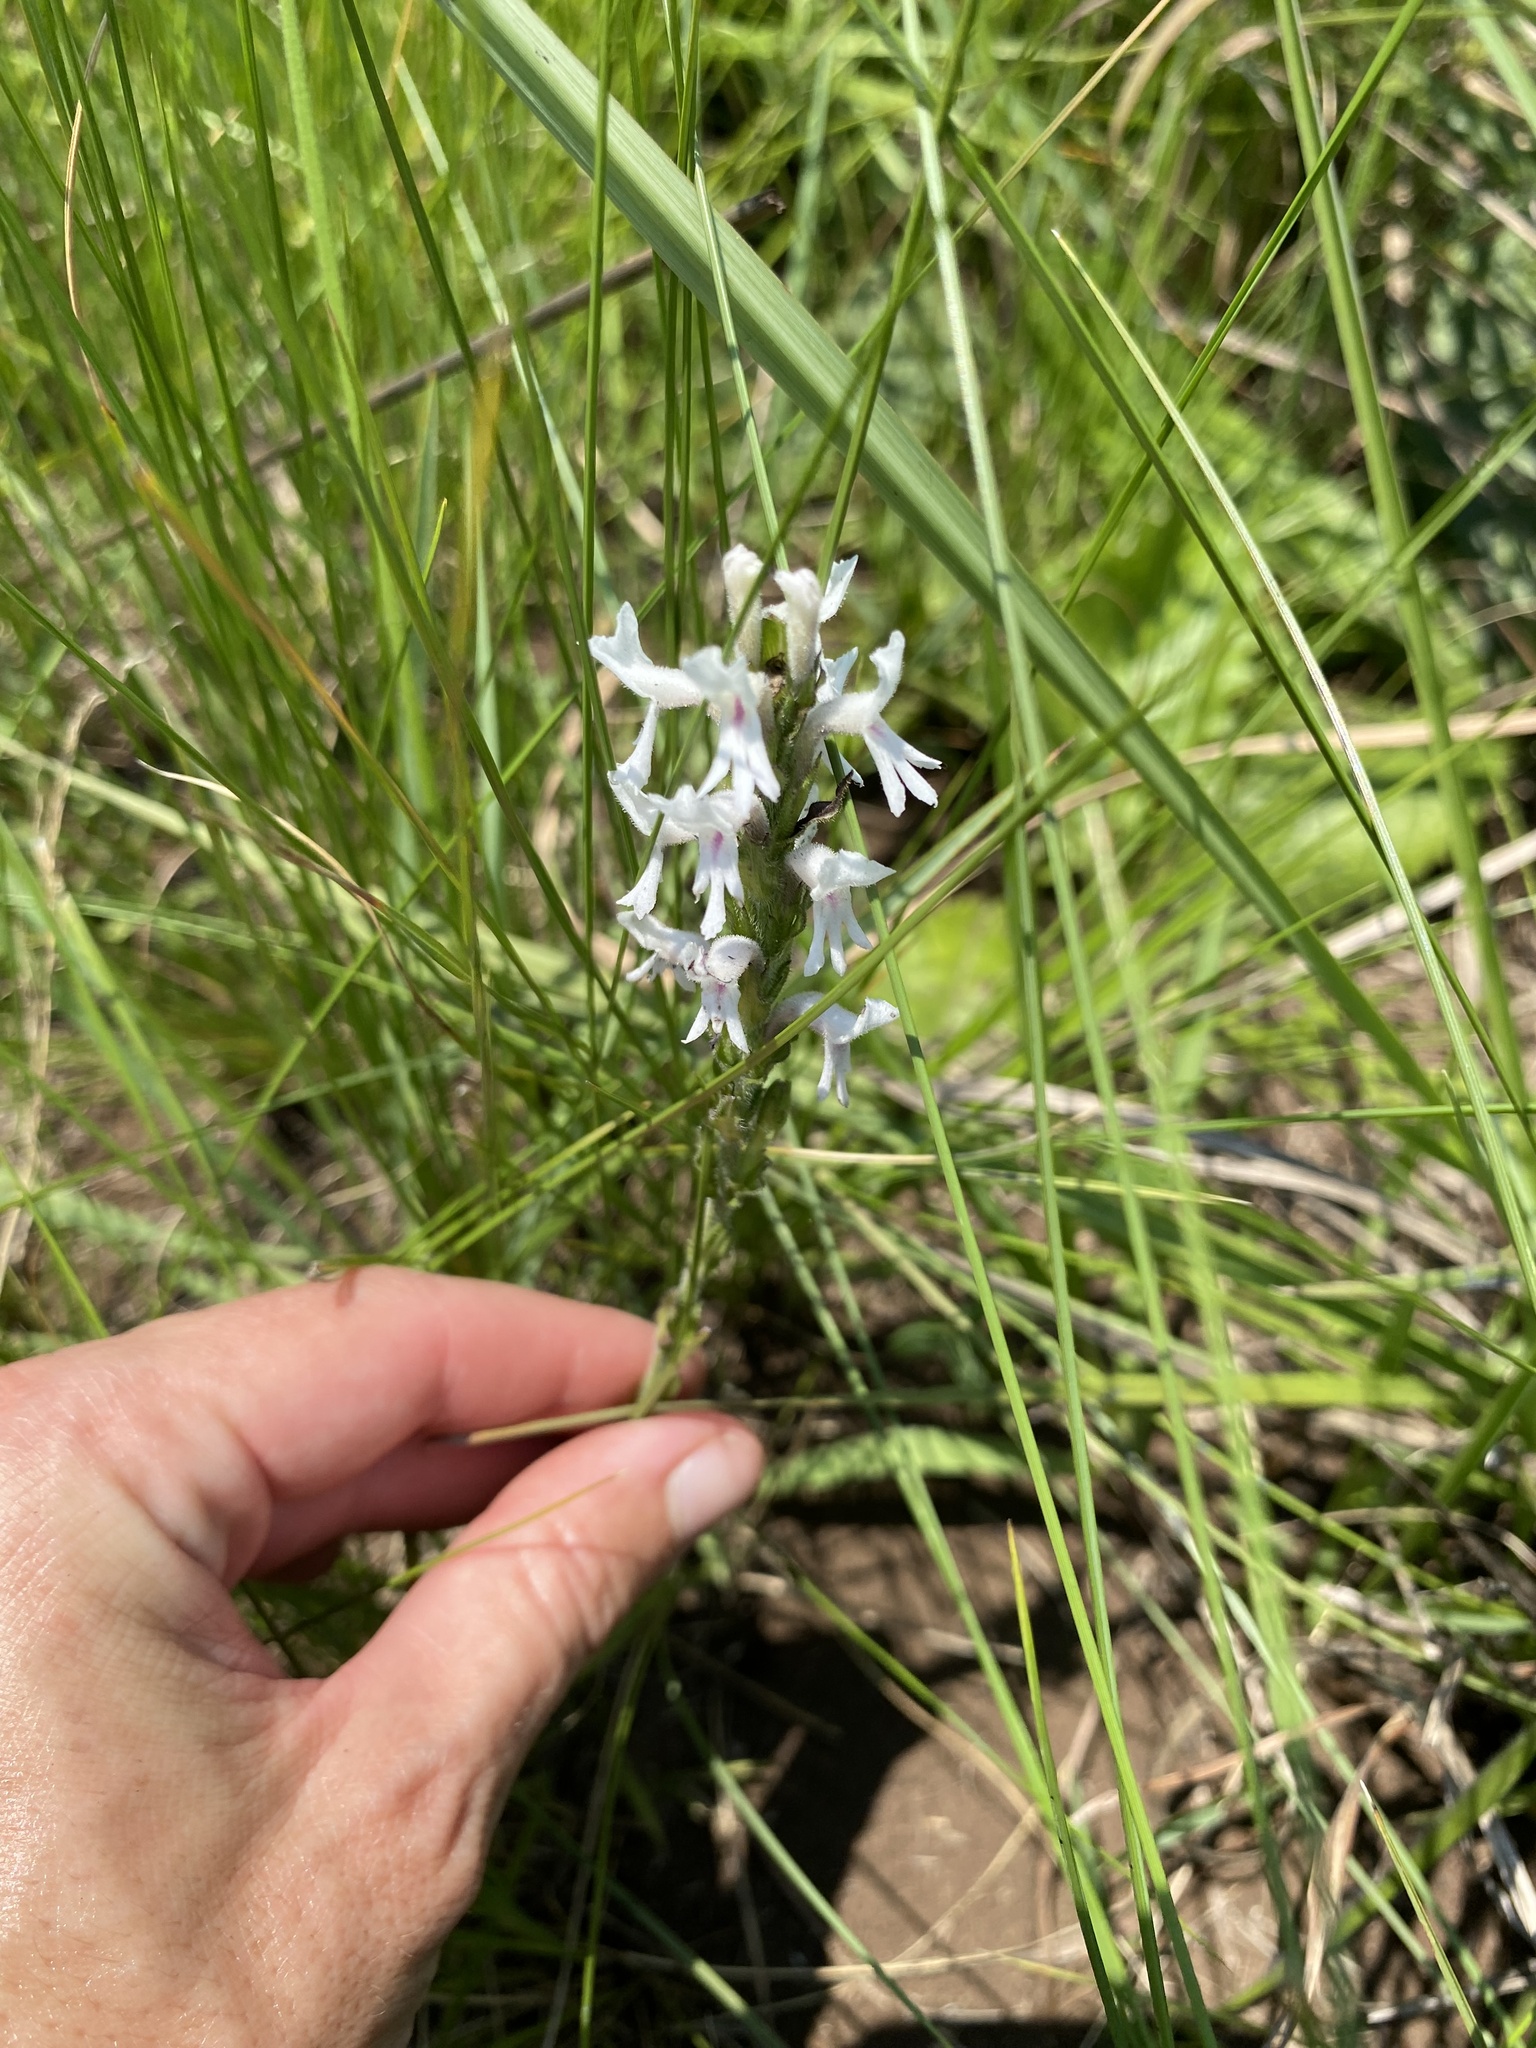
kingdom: Plantae
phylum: Tracheophyta
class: Magnoliopsida
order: Lamiales
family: Orobanchaceae
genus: Striga
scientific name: Striga bilabiata
